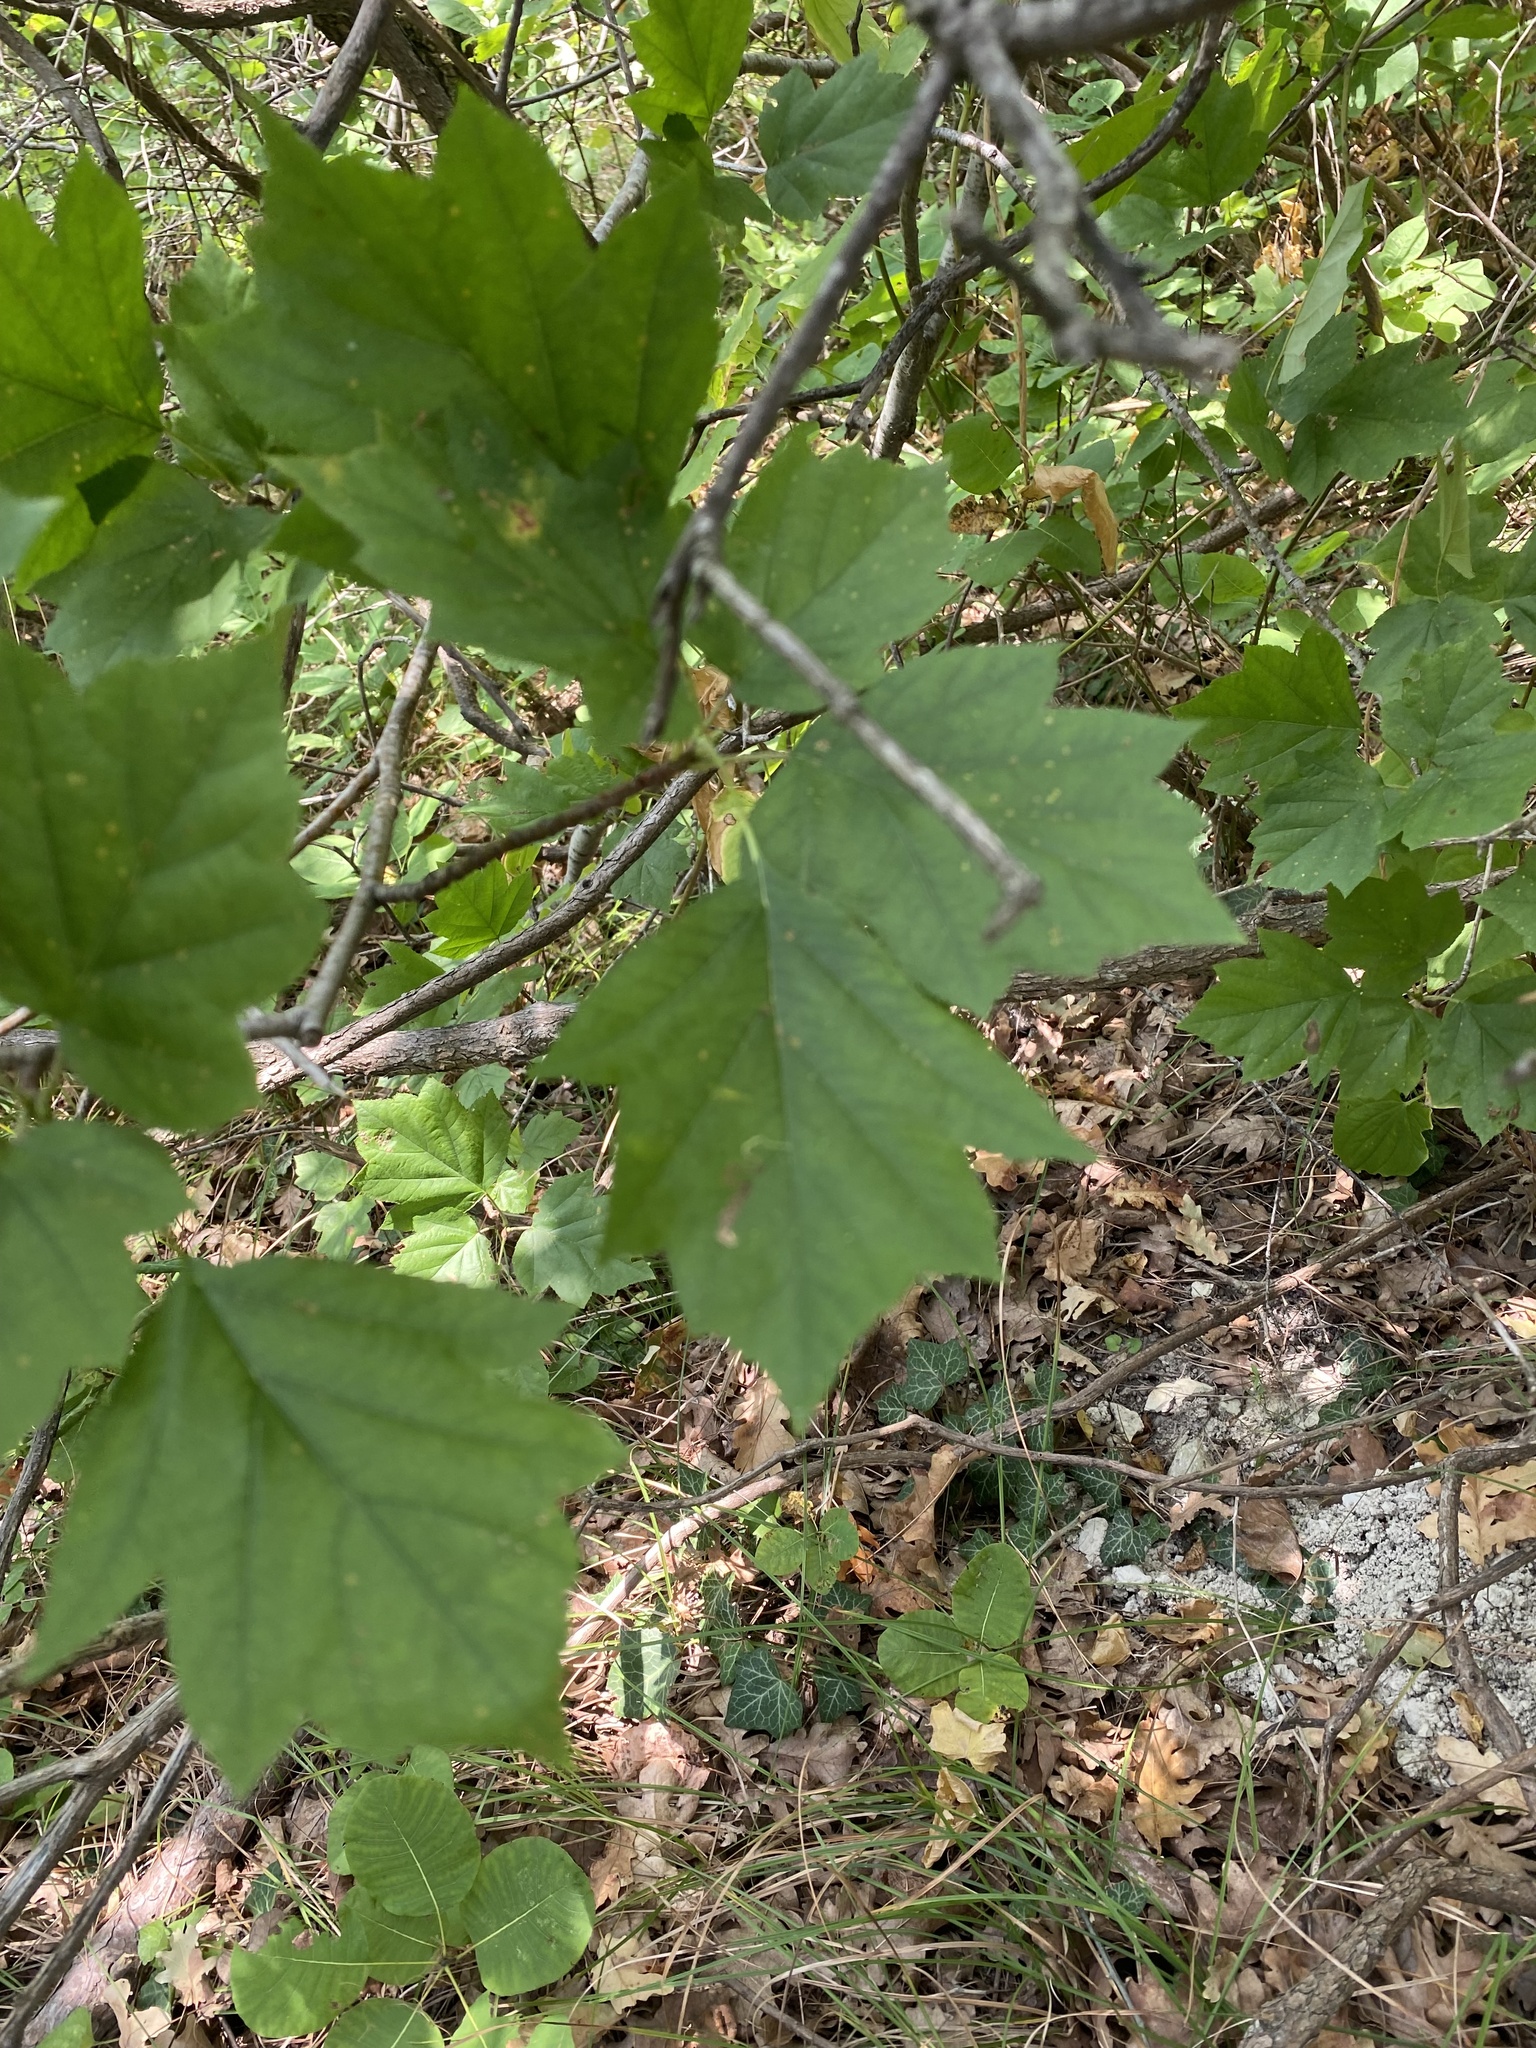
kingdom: Plantae
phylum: Tracheophyta
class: Magnoliopsida
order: Rosales
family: Rosaceae
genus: Torminalis
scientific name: Torminalis glaberrima
